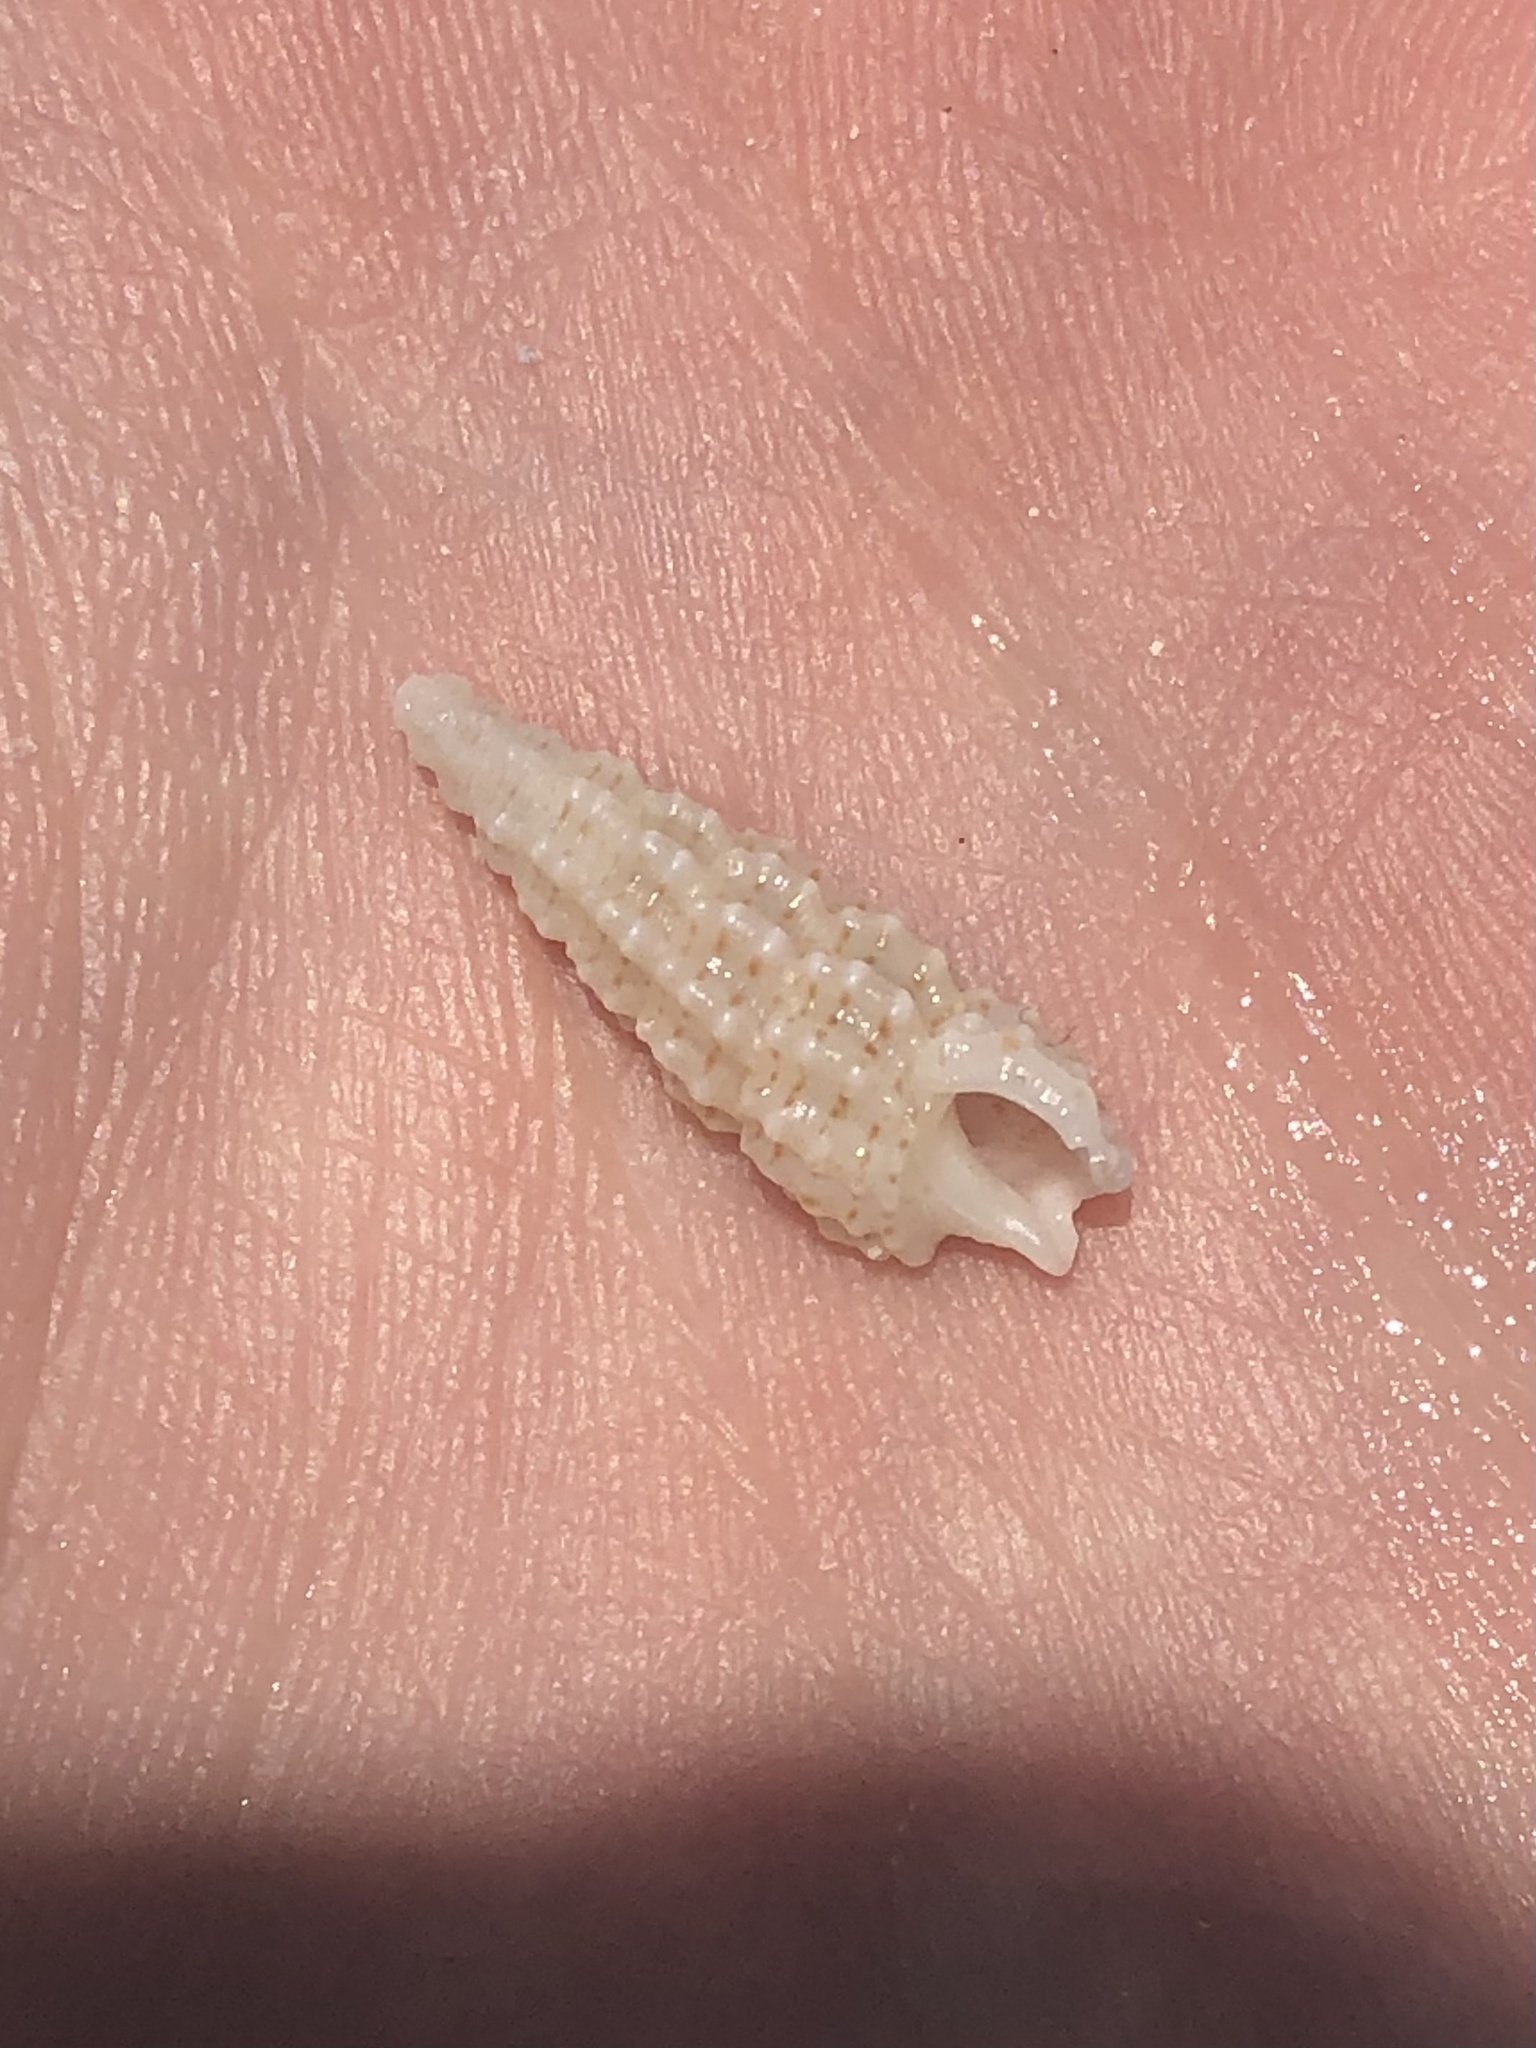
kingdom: Animalia
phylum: Mollusca
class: Gastropoda
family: Cerithiidae
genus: Cerithium
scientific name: Cerithium muscarum
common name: Fly-specked cerith
